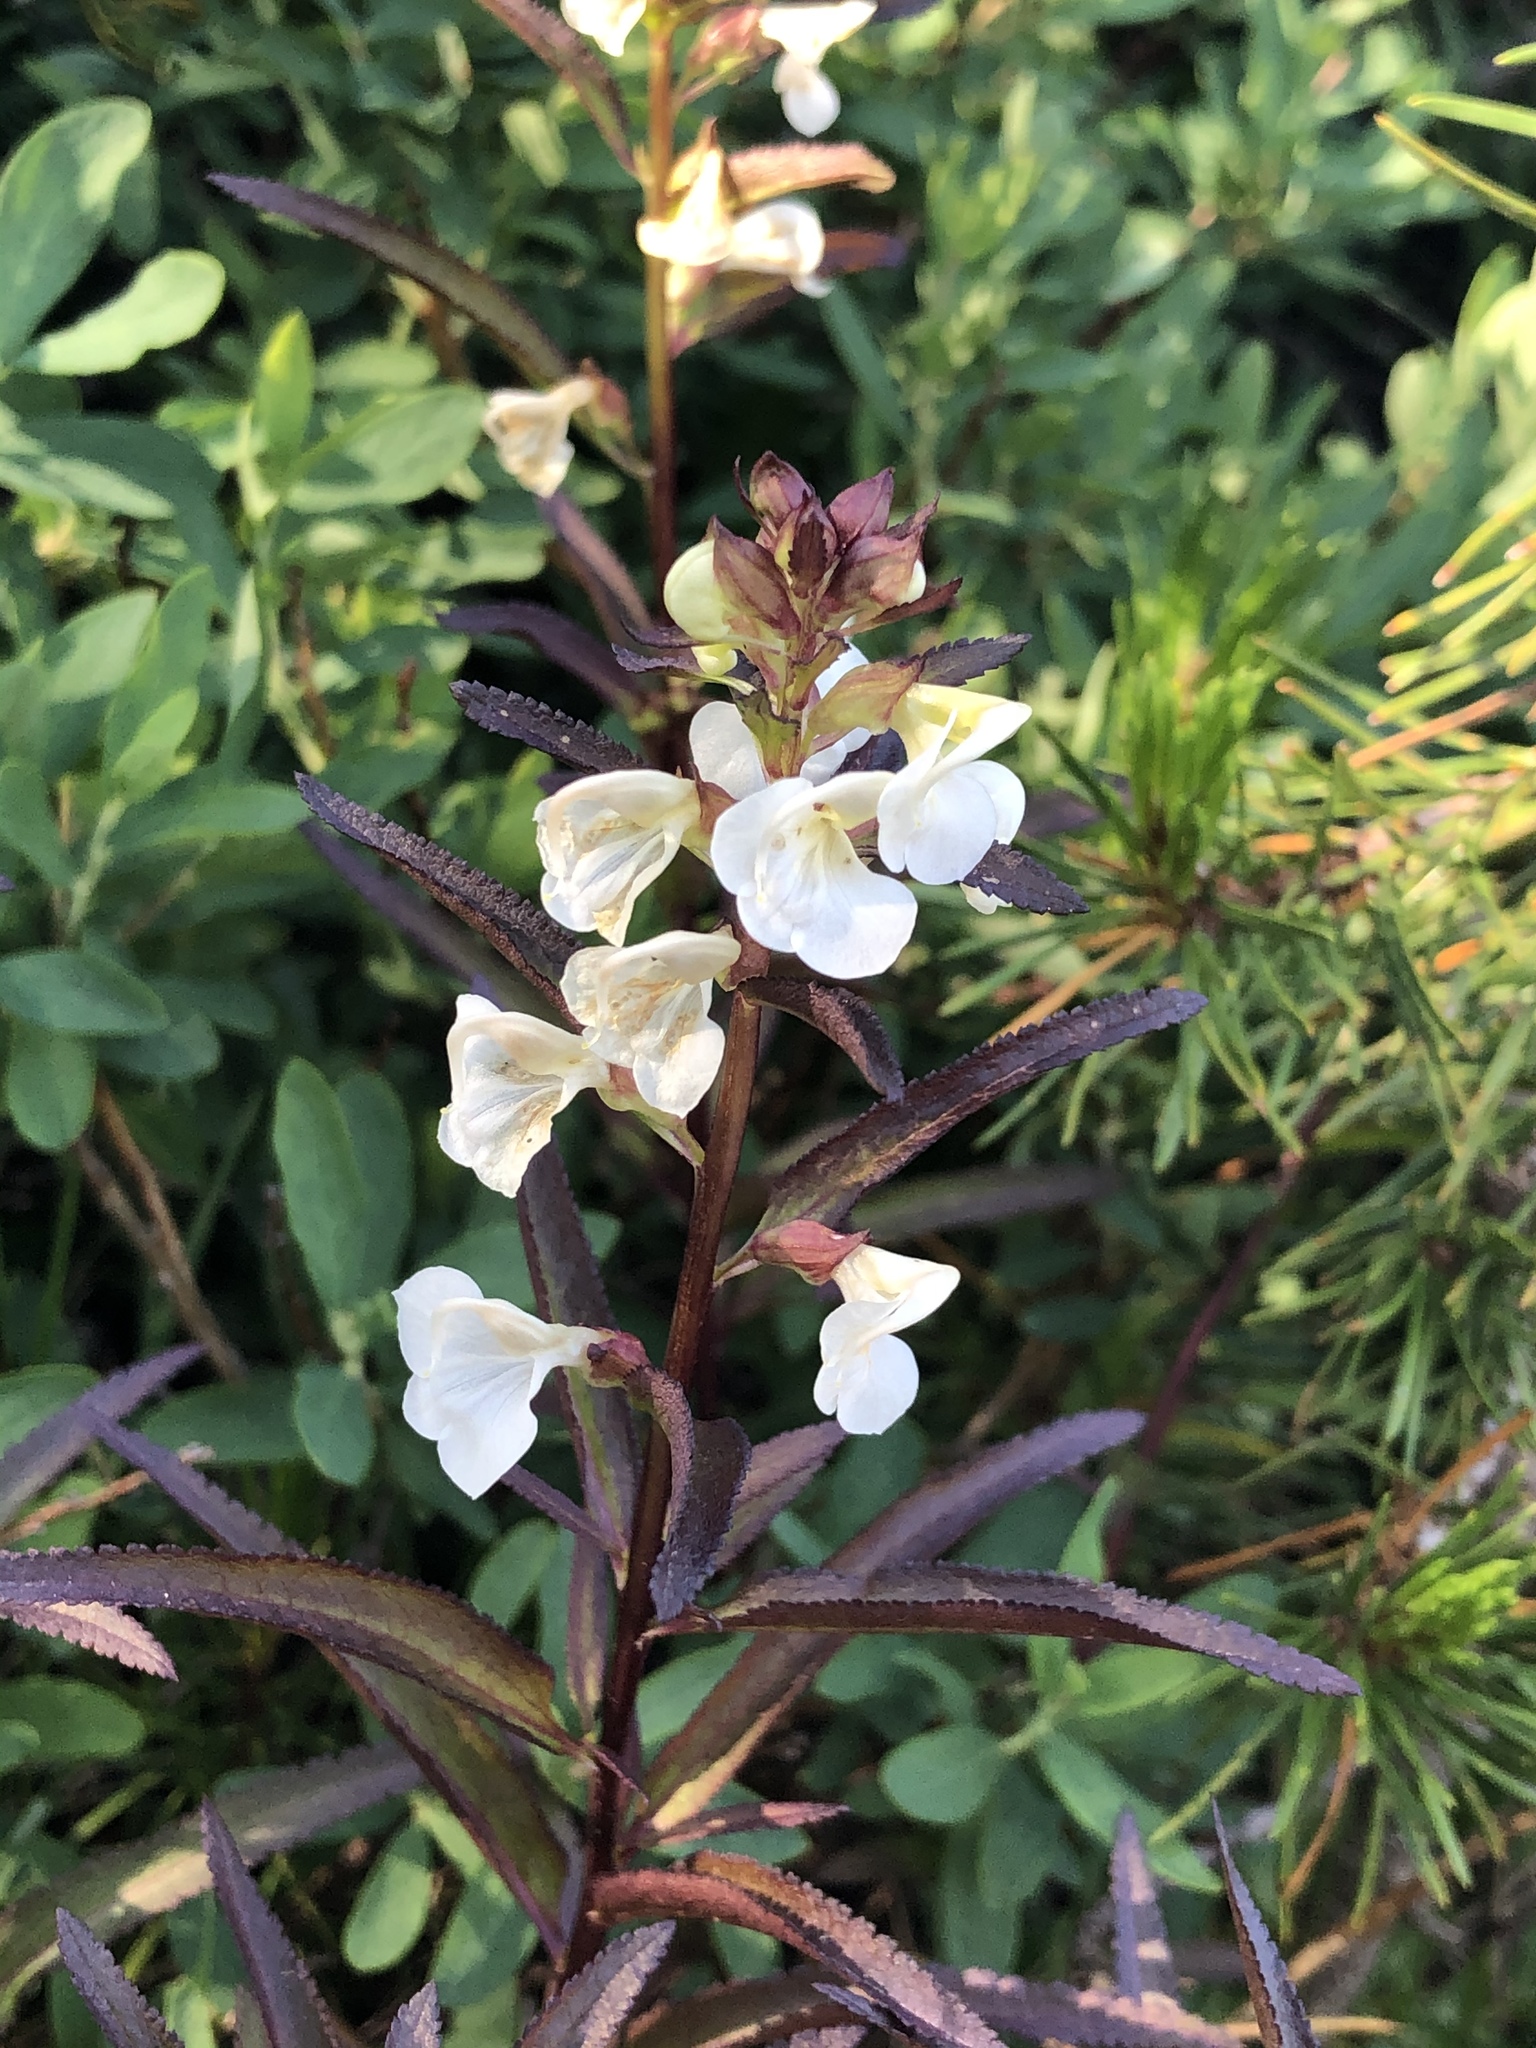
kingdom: Plantae
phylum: Tracheophyta
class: Magnoliopsida
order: Lamiales
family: Orobanchaceae
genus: Pedicularis
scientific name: Pedicularis racemosa
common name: Leafy lousewort
